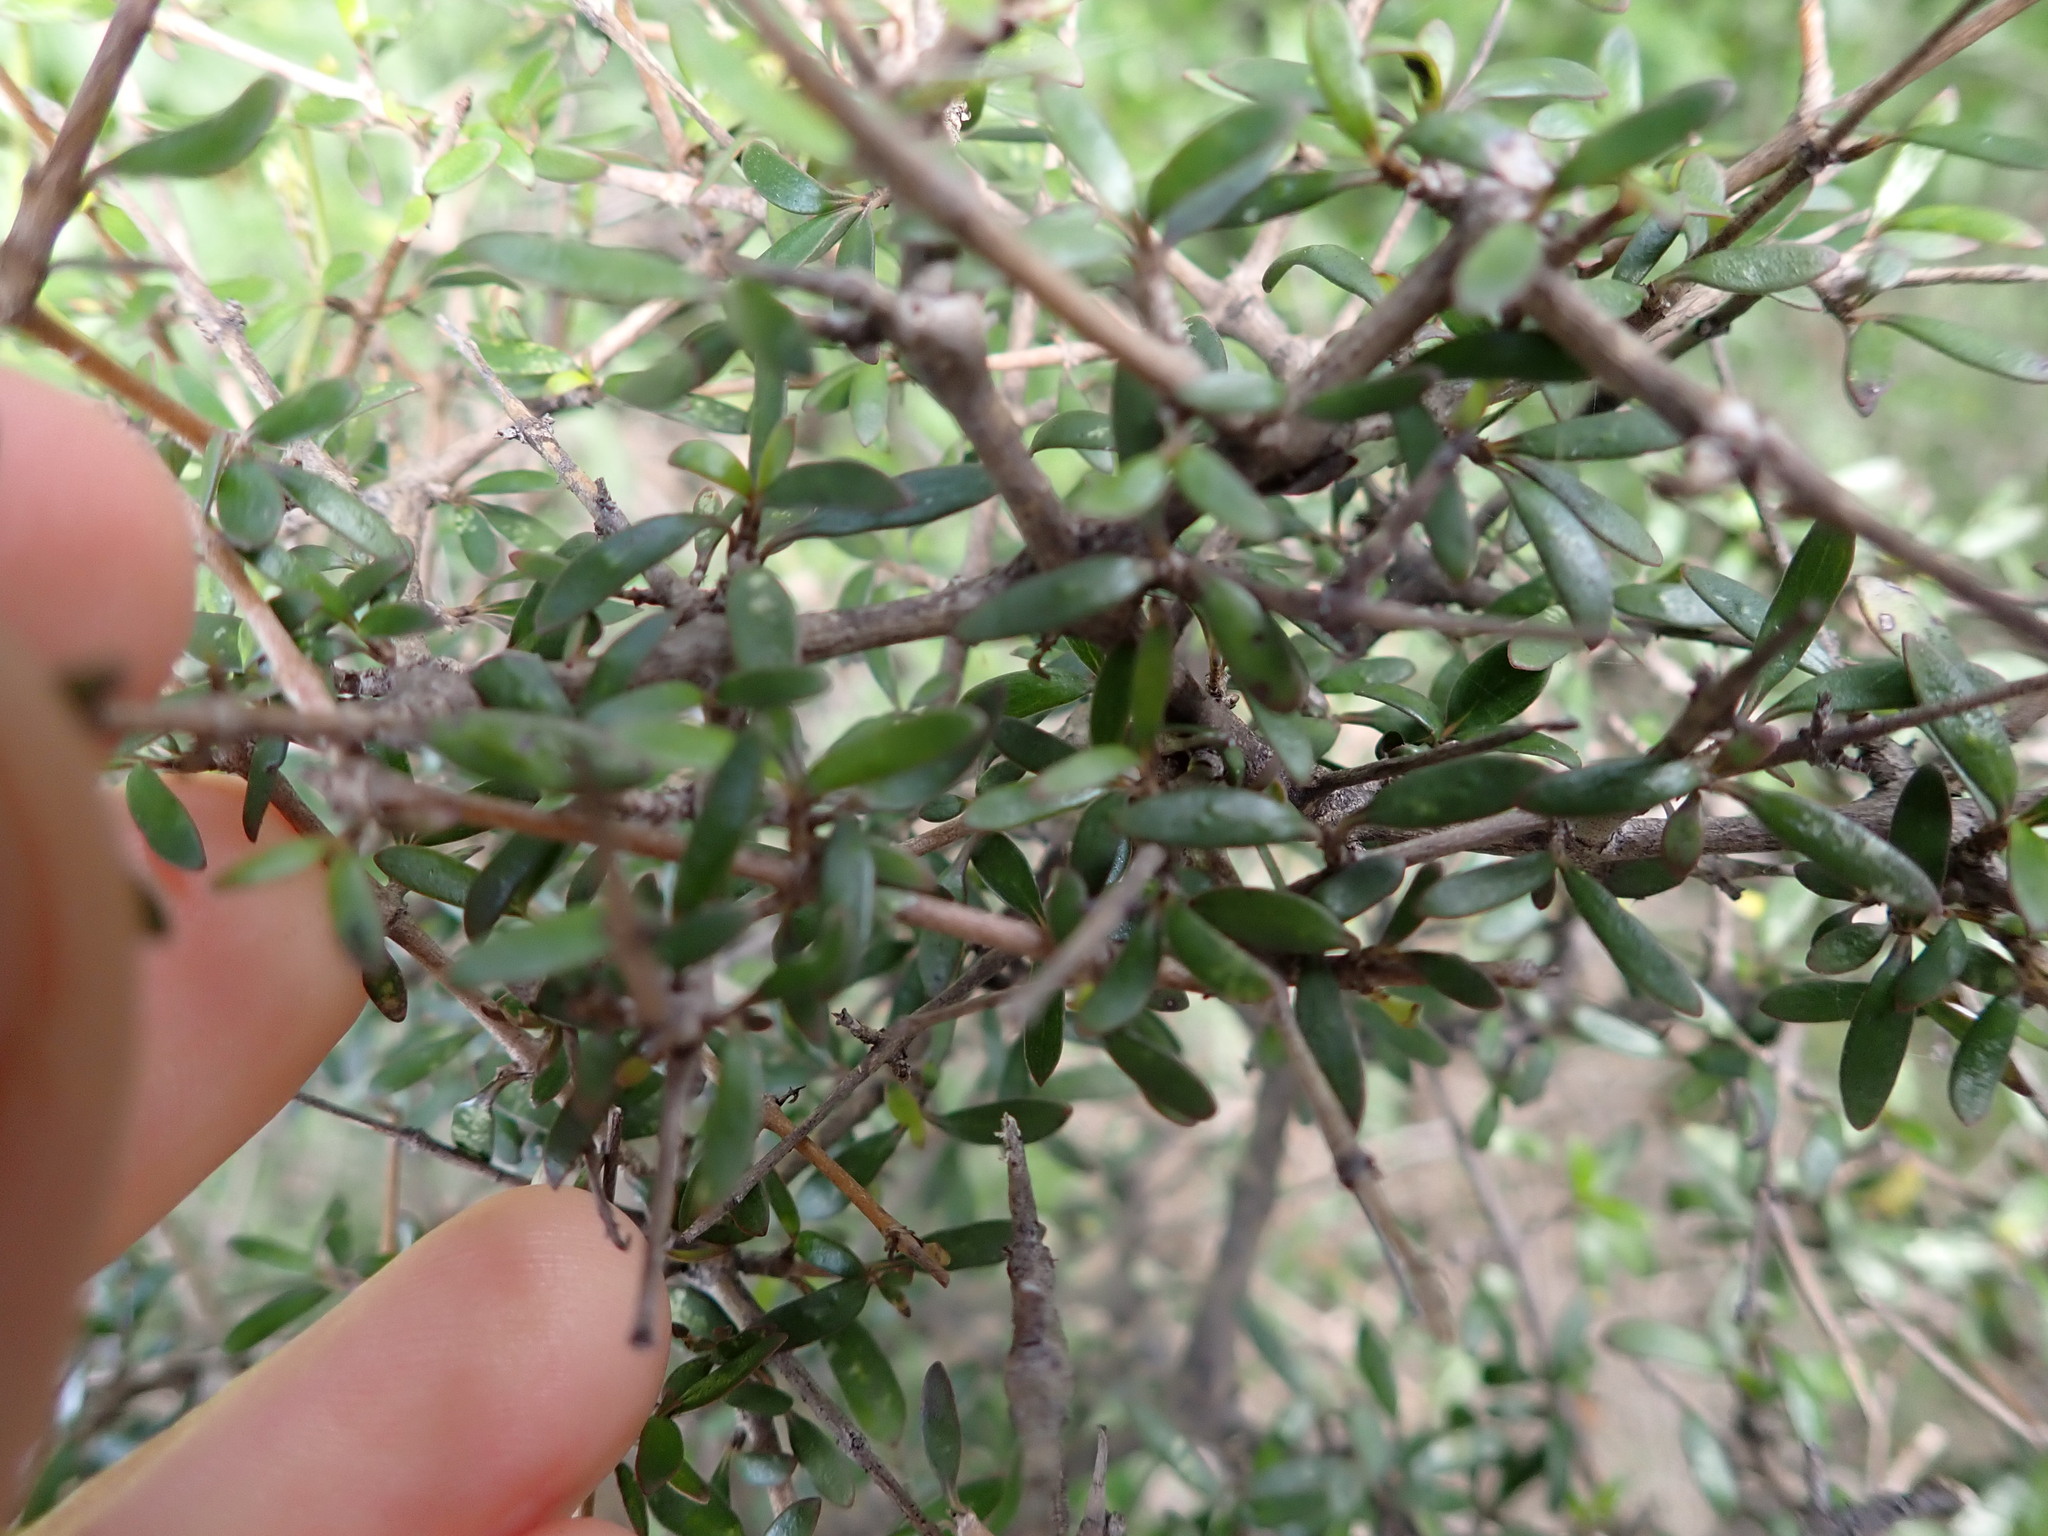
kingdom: Plantae
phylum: Tracheophyta
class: Magnoliopsida
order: Gentianales
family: Rubiaceae
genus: Coprosma
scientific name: Coprosma propinqua
